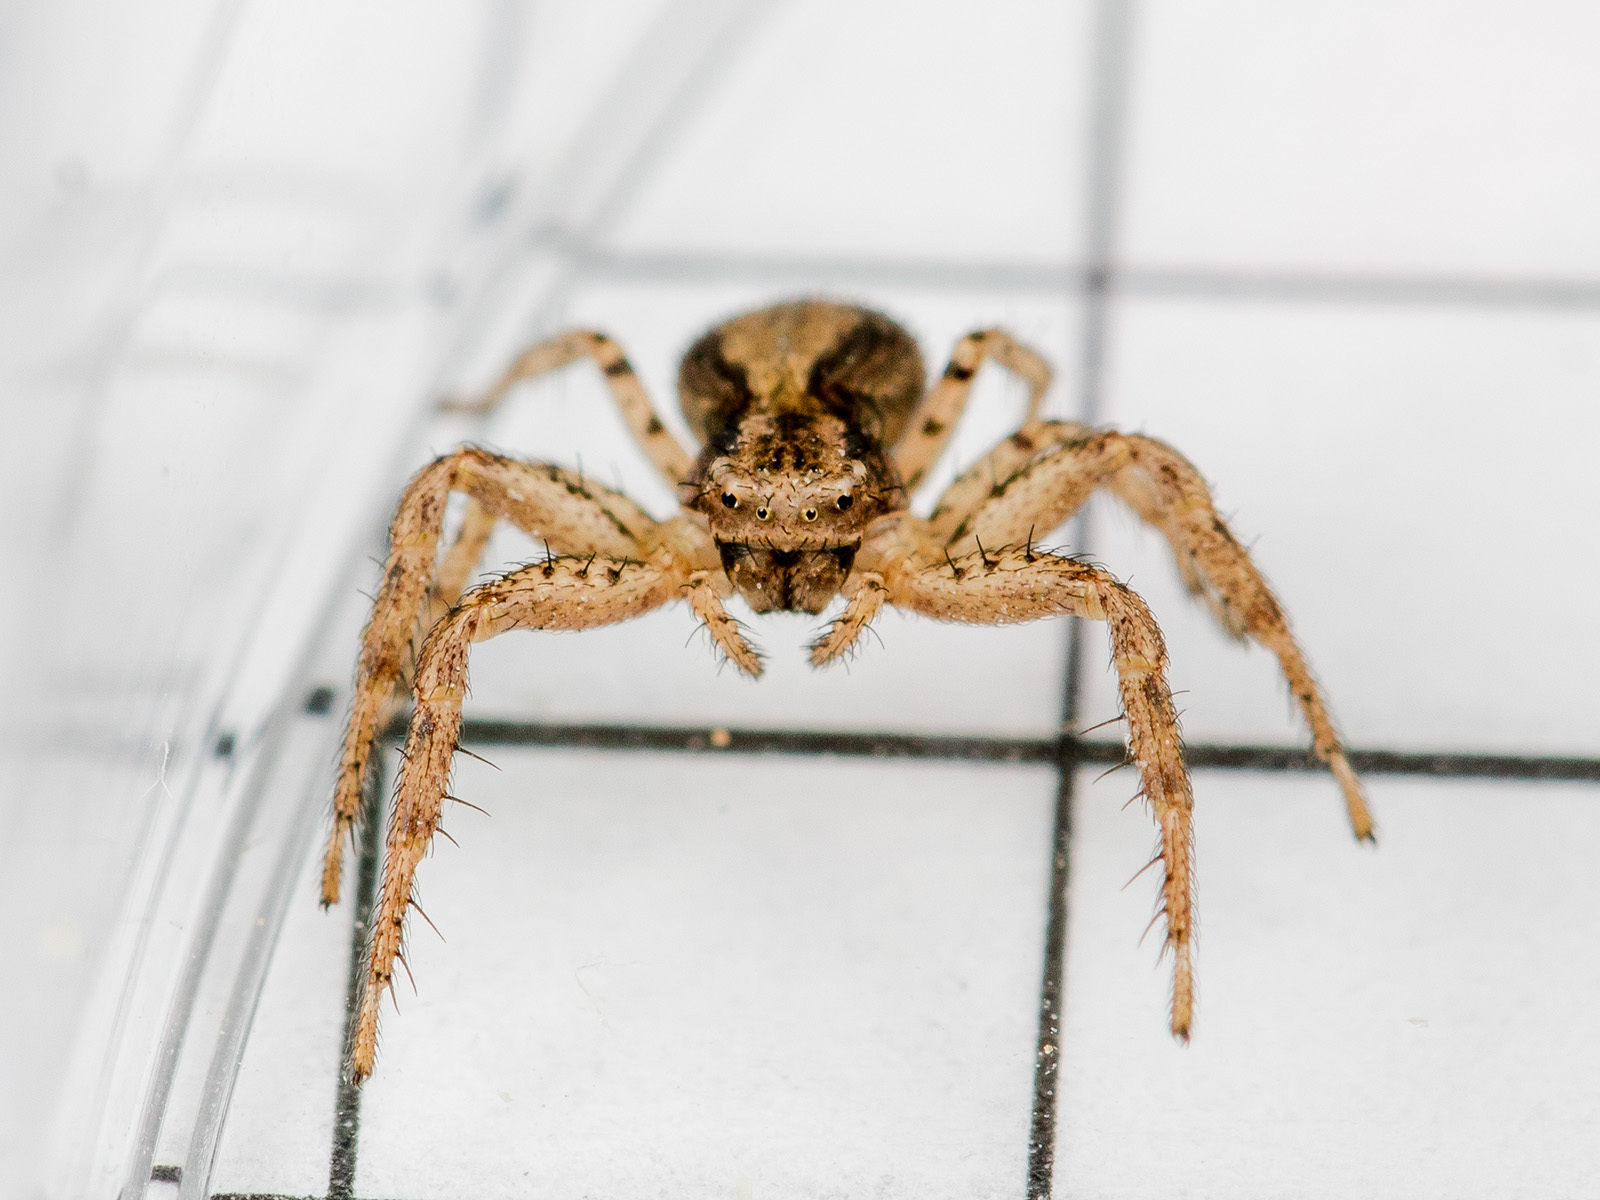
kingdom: Animalia
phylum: Arthropoda
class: Arachnida
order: Araneae
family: Thomisidae
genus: Psammitis
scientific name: Psammitis minor
